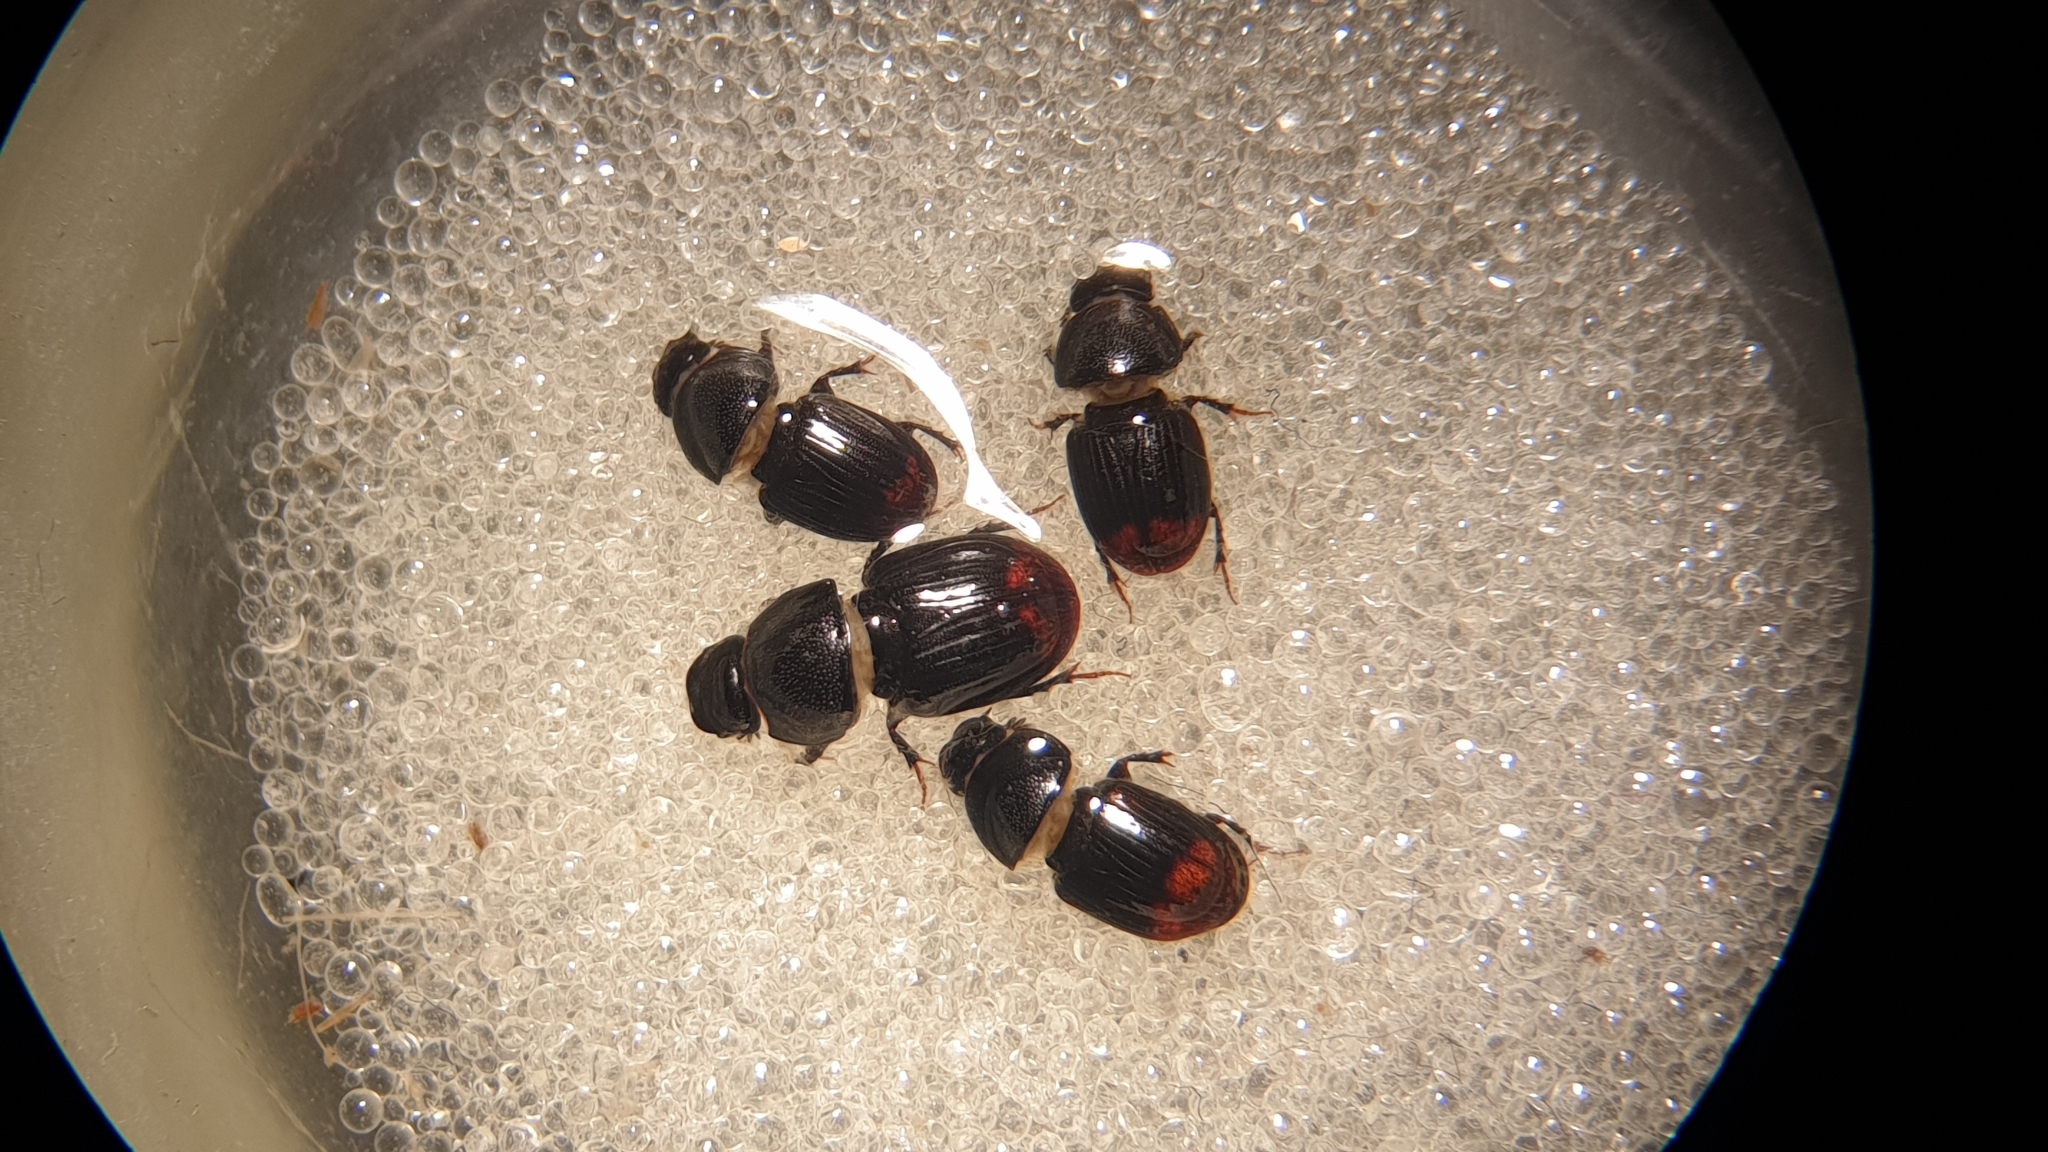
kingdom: Animalia
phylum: Arthropoda
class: Insecta
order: Coleoptera
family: Scarabaeidae
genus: Otophorus
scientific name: Otophorus haemorrhoidalis
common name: Bloody small dung beetle
